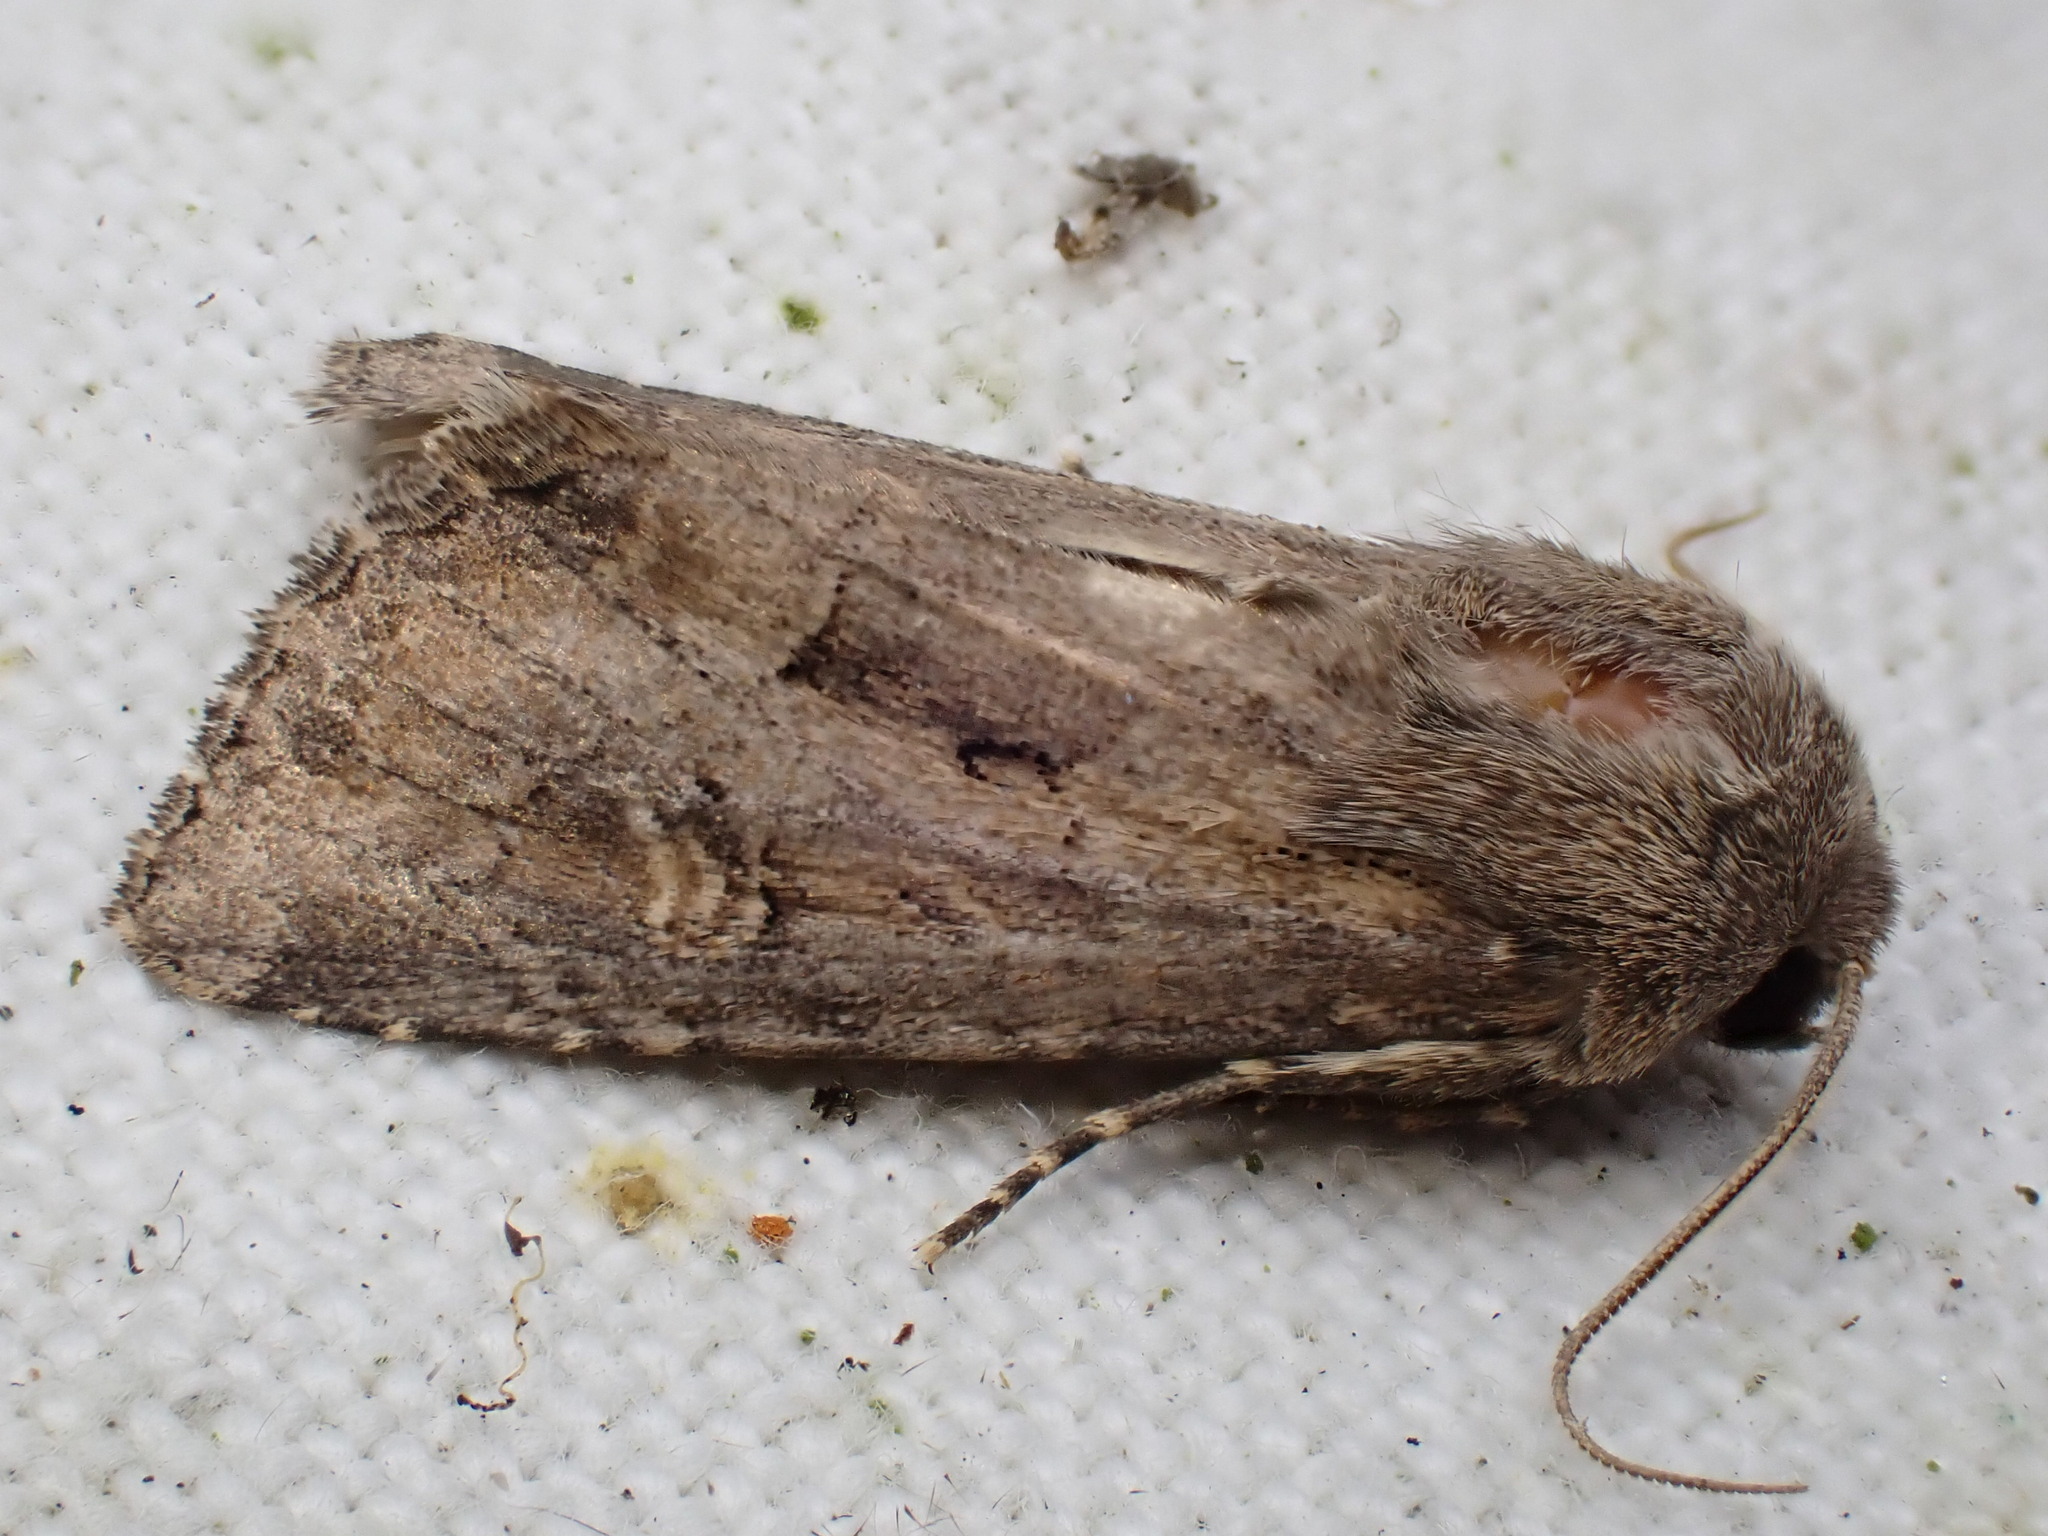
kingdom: Animalia
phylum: Arthropoda
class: Insecta
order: Lepidoptera
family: Noctuidae
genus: Luperina
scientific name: Luperina testacea
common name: Flounced rustic
